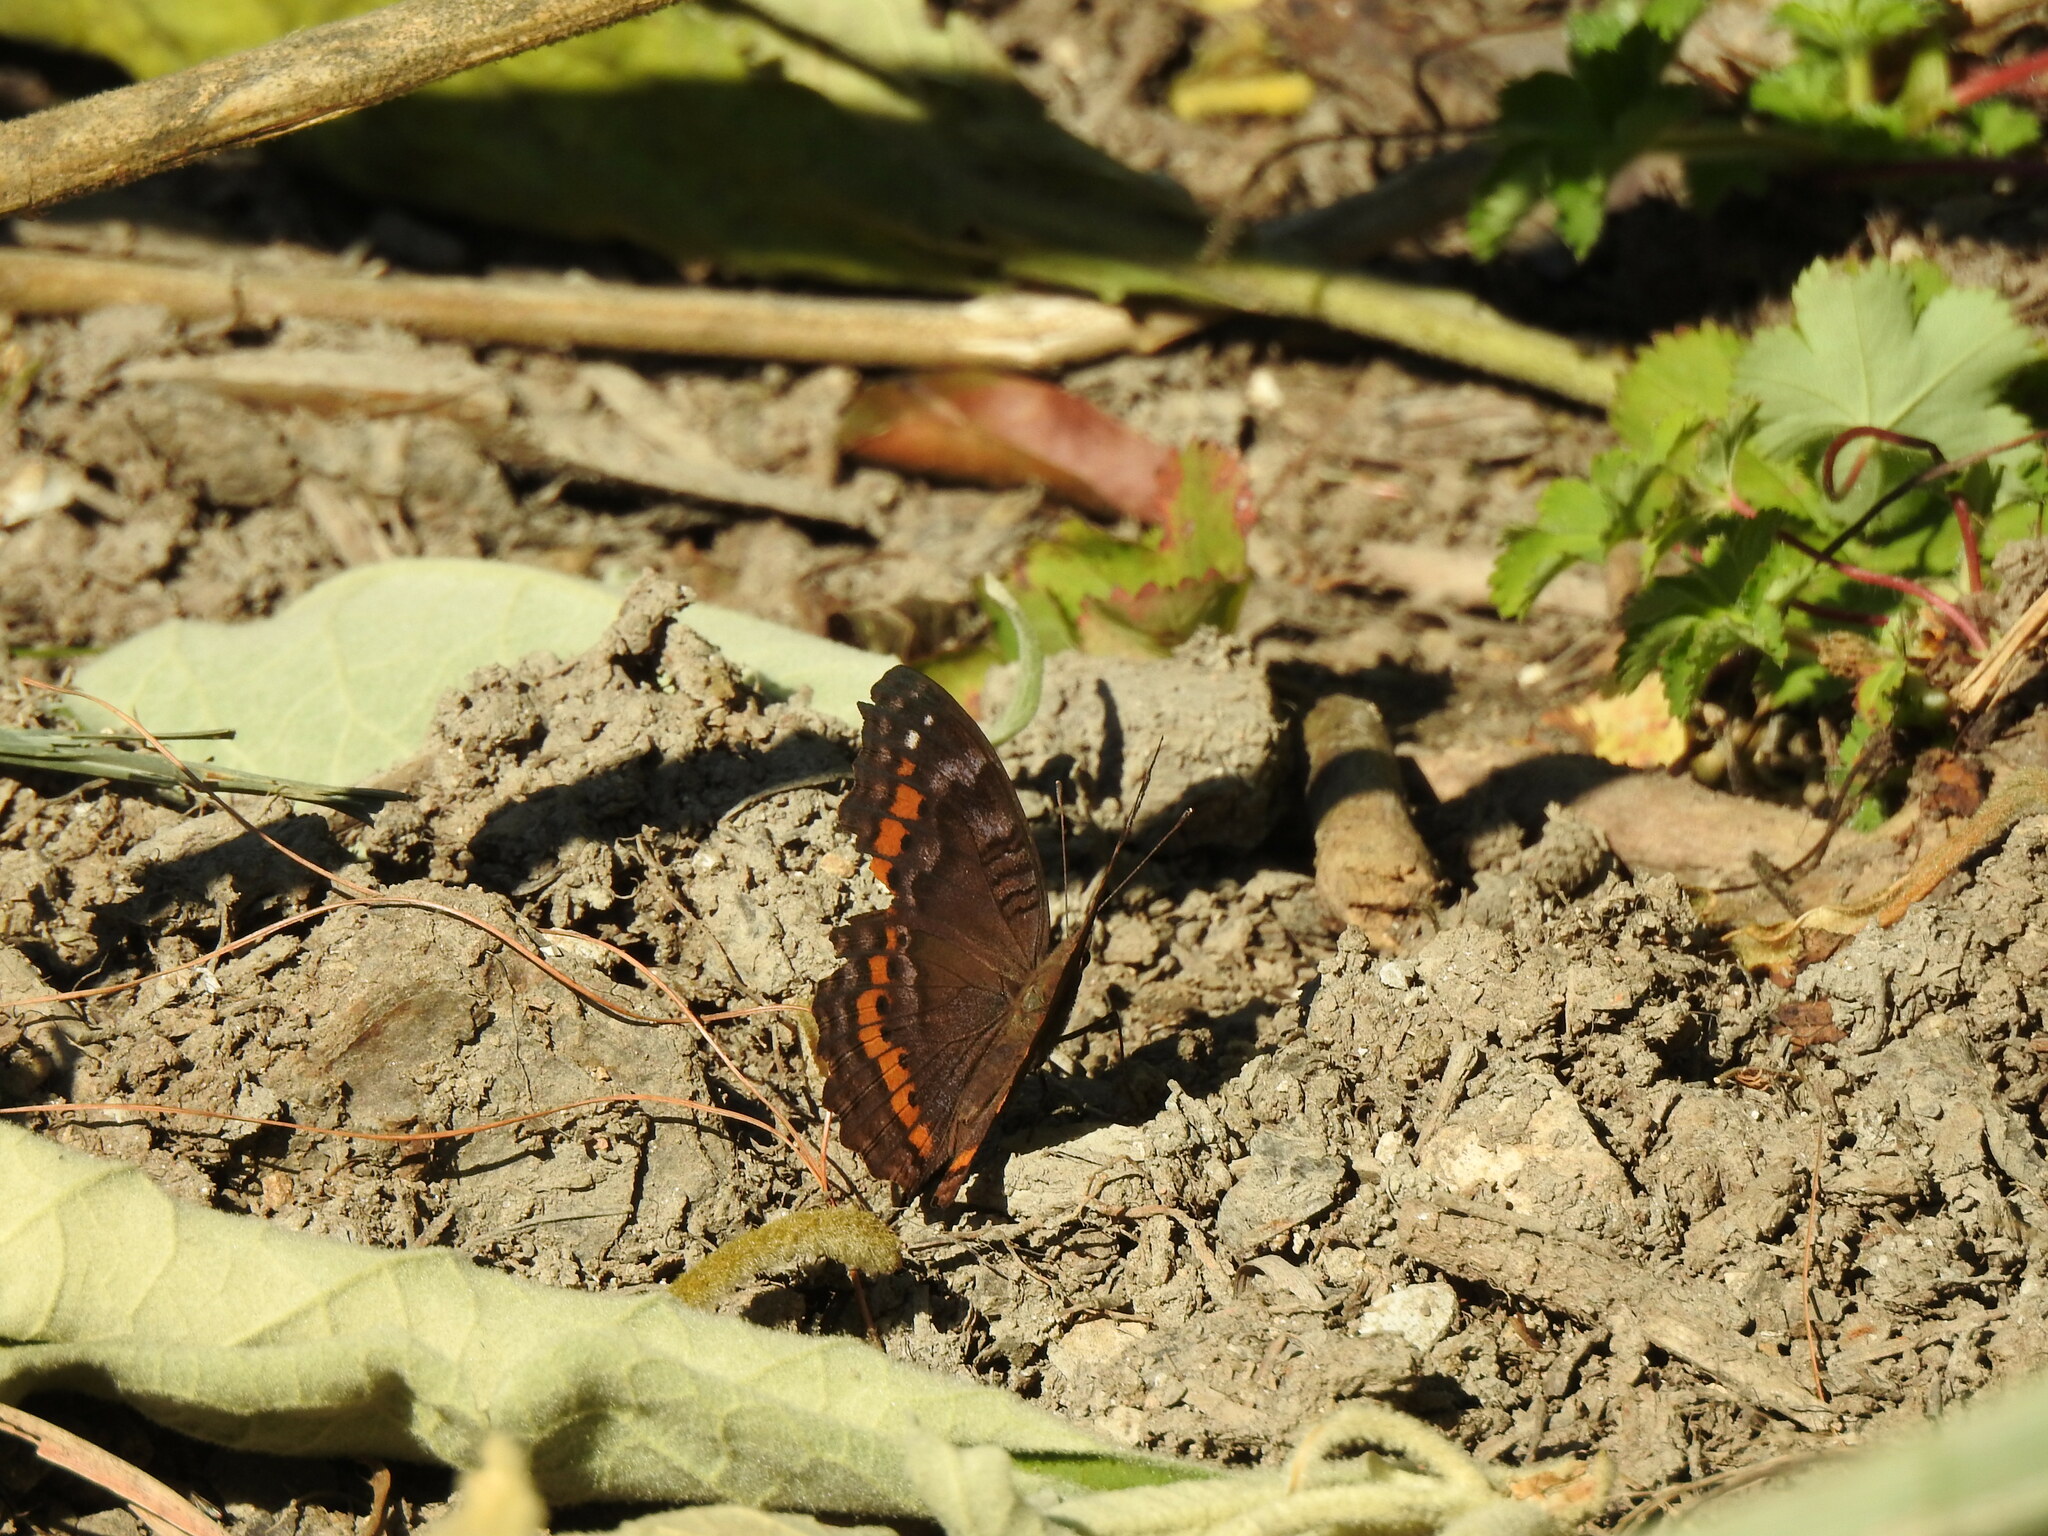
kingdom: Animalia
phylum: Arthropoda
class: Insecta
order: Lepidoptera
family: Nymphalidae
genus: Precis
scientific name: Precis octavia
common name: Gaudy commodore
